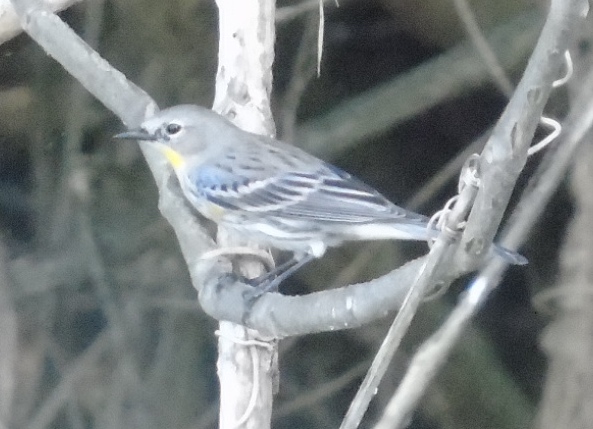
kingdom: Animalia
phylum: Chordata
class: Aves
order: Passeriformes
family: Parulidae
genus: Setophaga
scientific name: Setophaga coronata
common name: Myrtle warbler
